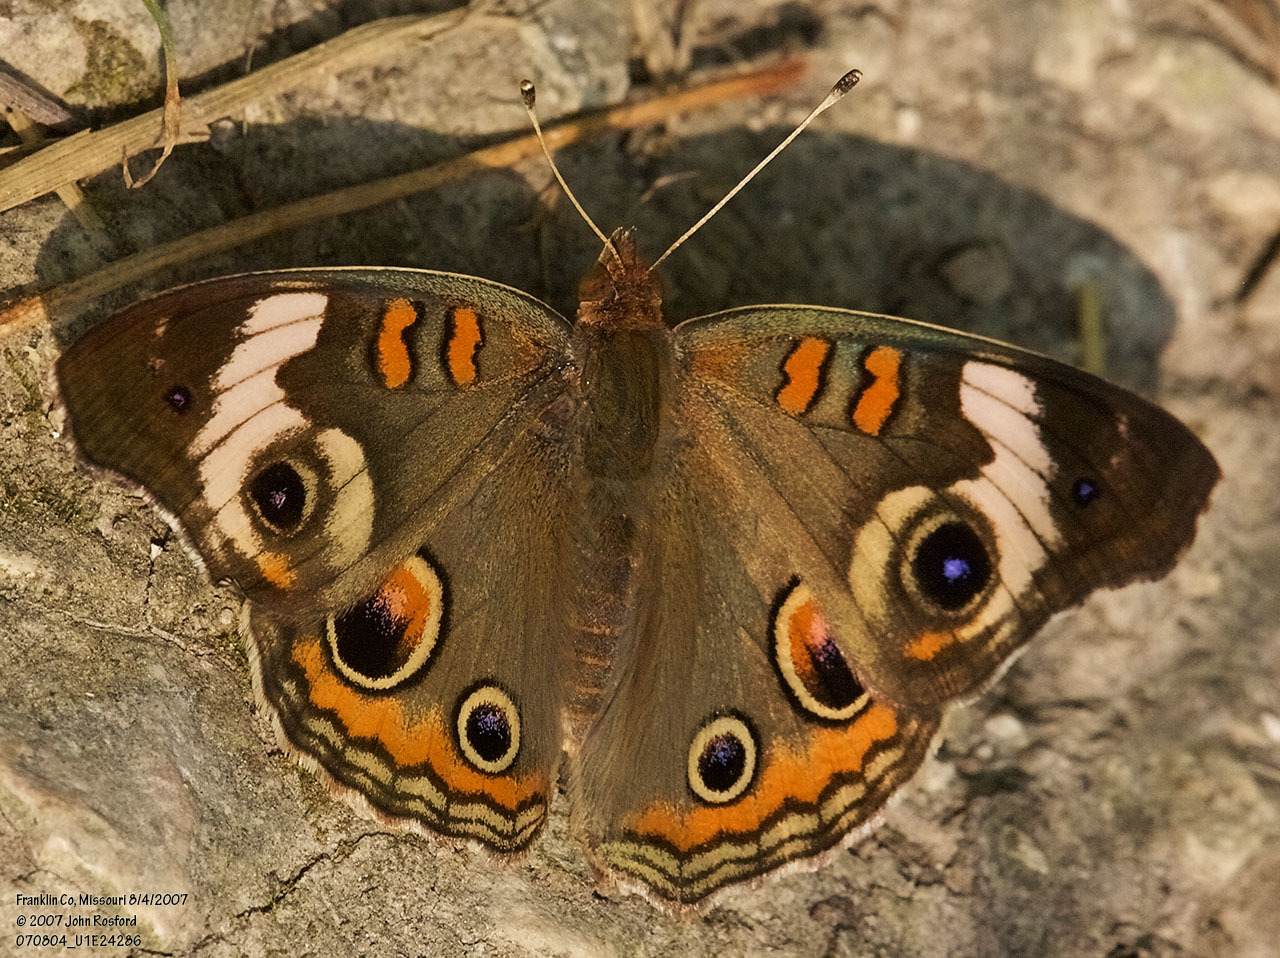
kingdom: Animalia
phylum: Arthropoda
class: Insecta
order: Lepidoptera
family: Nymphalidae
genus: Junonia
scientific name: Junonia coenia
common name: Common buckeye
